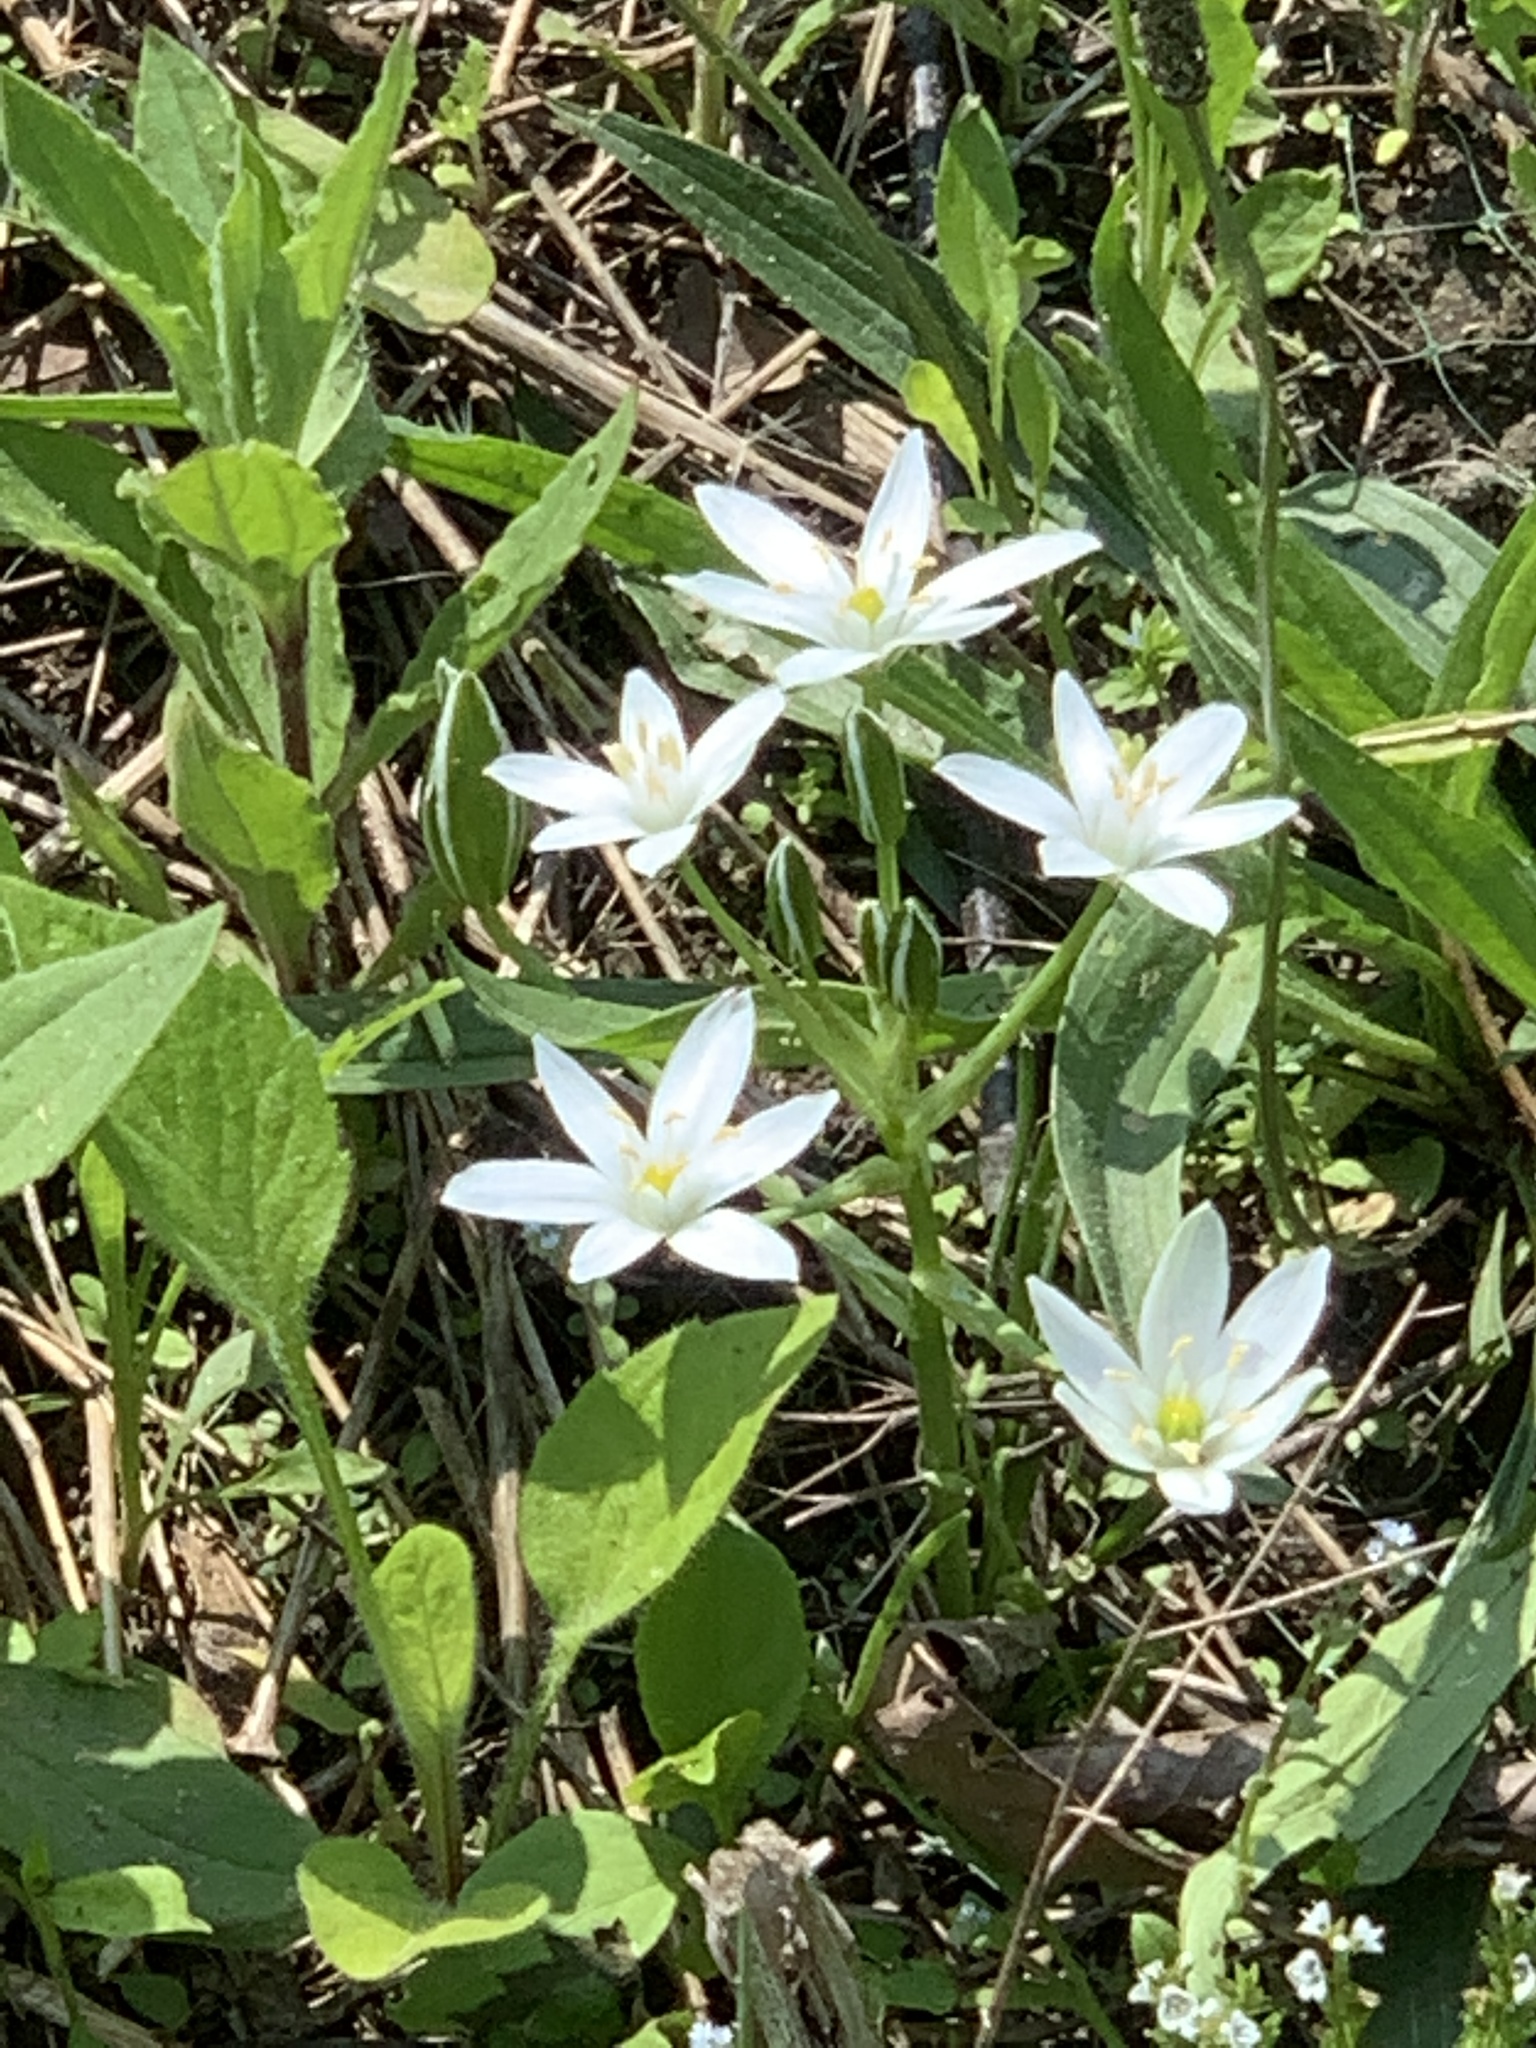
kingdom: Plantae
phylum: Tracheophyta
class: Liliopsida
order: Asparagales
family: Asparagaceae
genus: Ornithogalum
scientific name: Ornithogalum umbellatum
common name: Garden star-of-bethlehem
